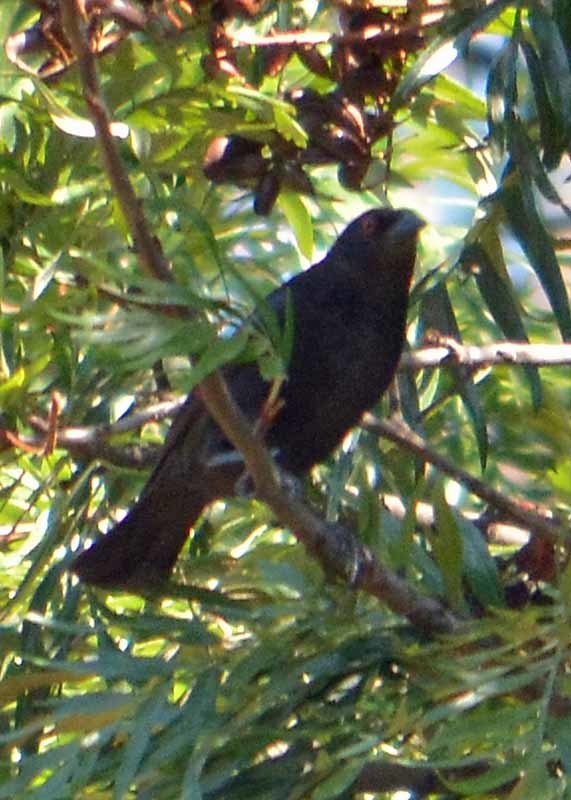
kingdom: Animalia
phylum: Chordata
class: Aves
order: Passeriformes
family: Icteridae
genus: Molothrus
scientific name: Molothrus aeneus
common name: Bronzed cowbird
